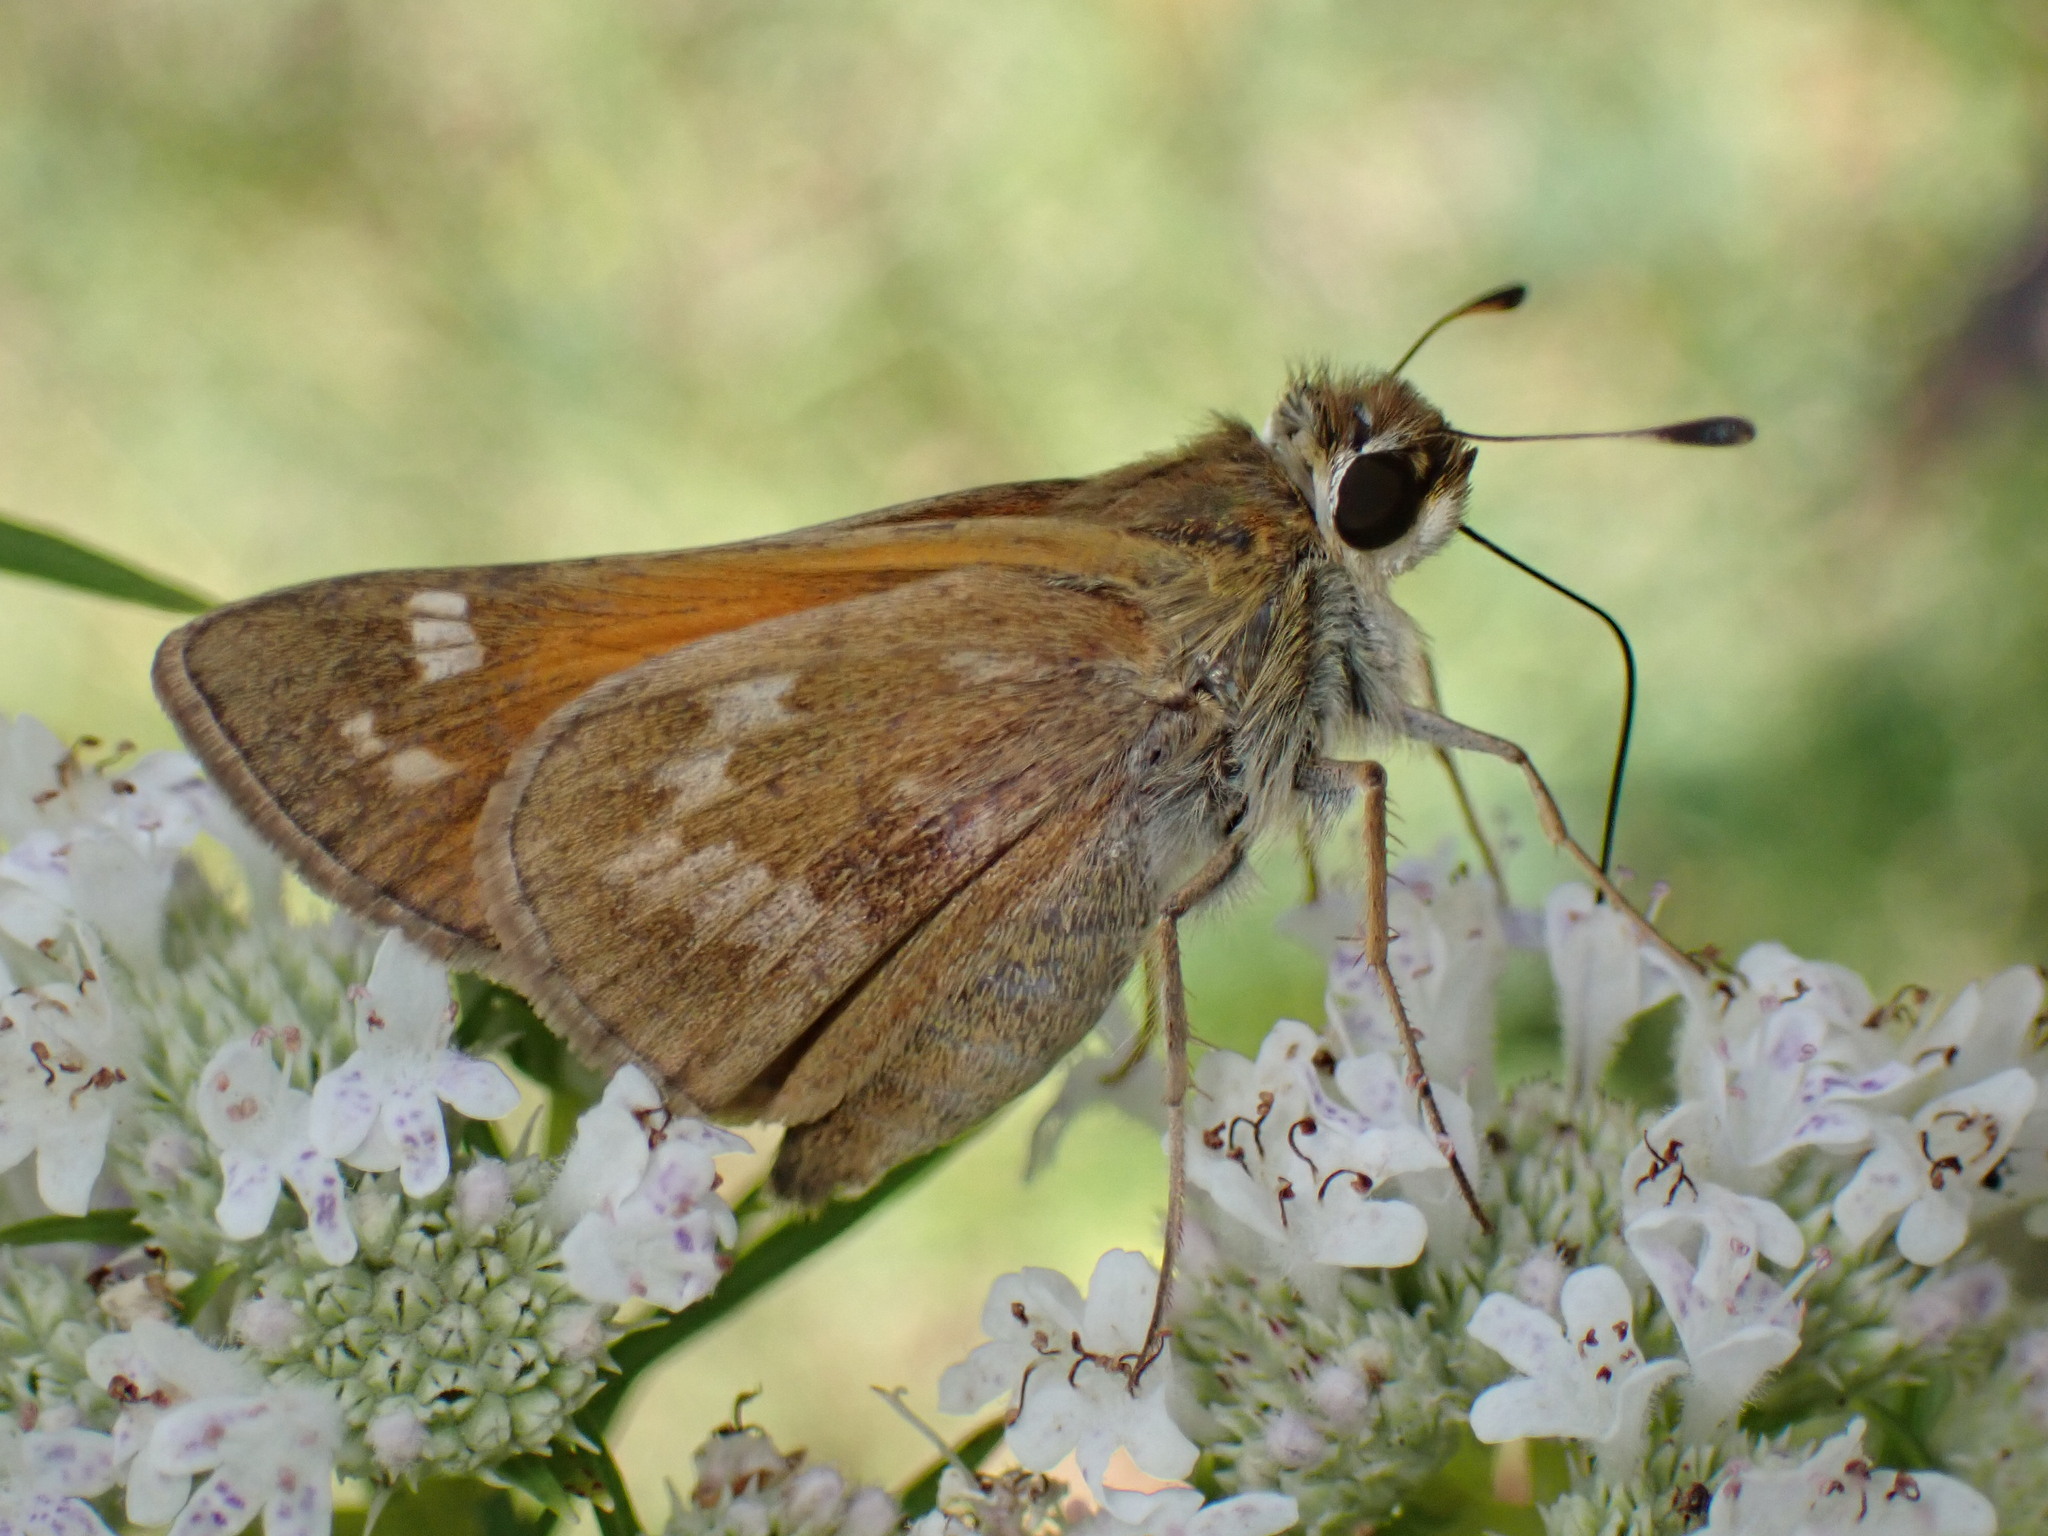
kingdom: Animalia
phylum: Arthropoda
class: Insecta
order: Lepidoptera
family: Hesperiidae
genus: Atalopedes
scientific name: Atalopedes
